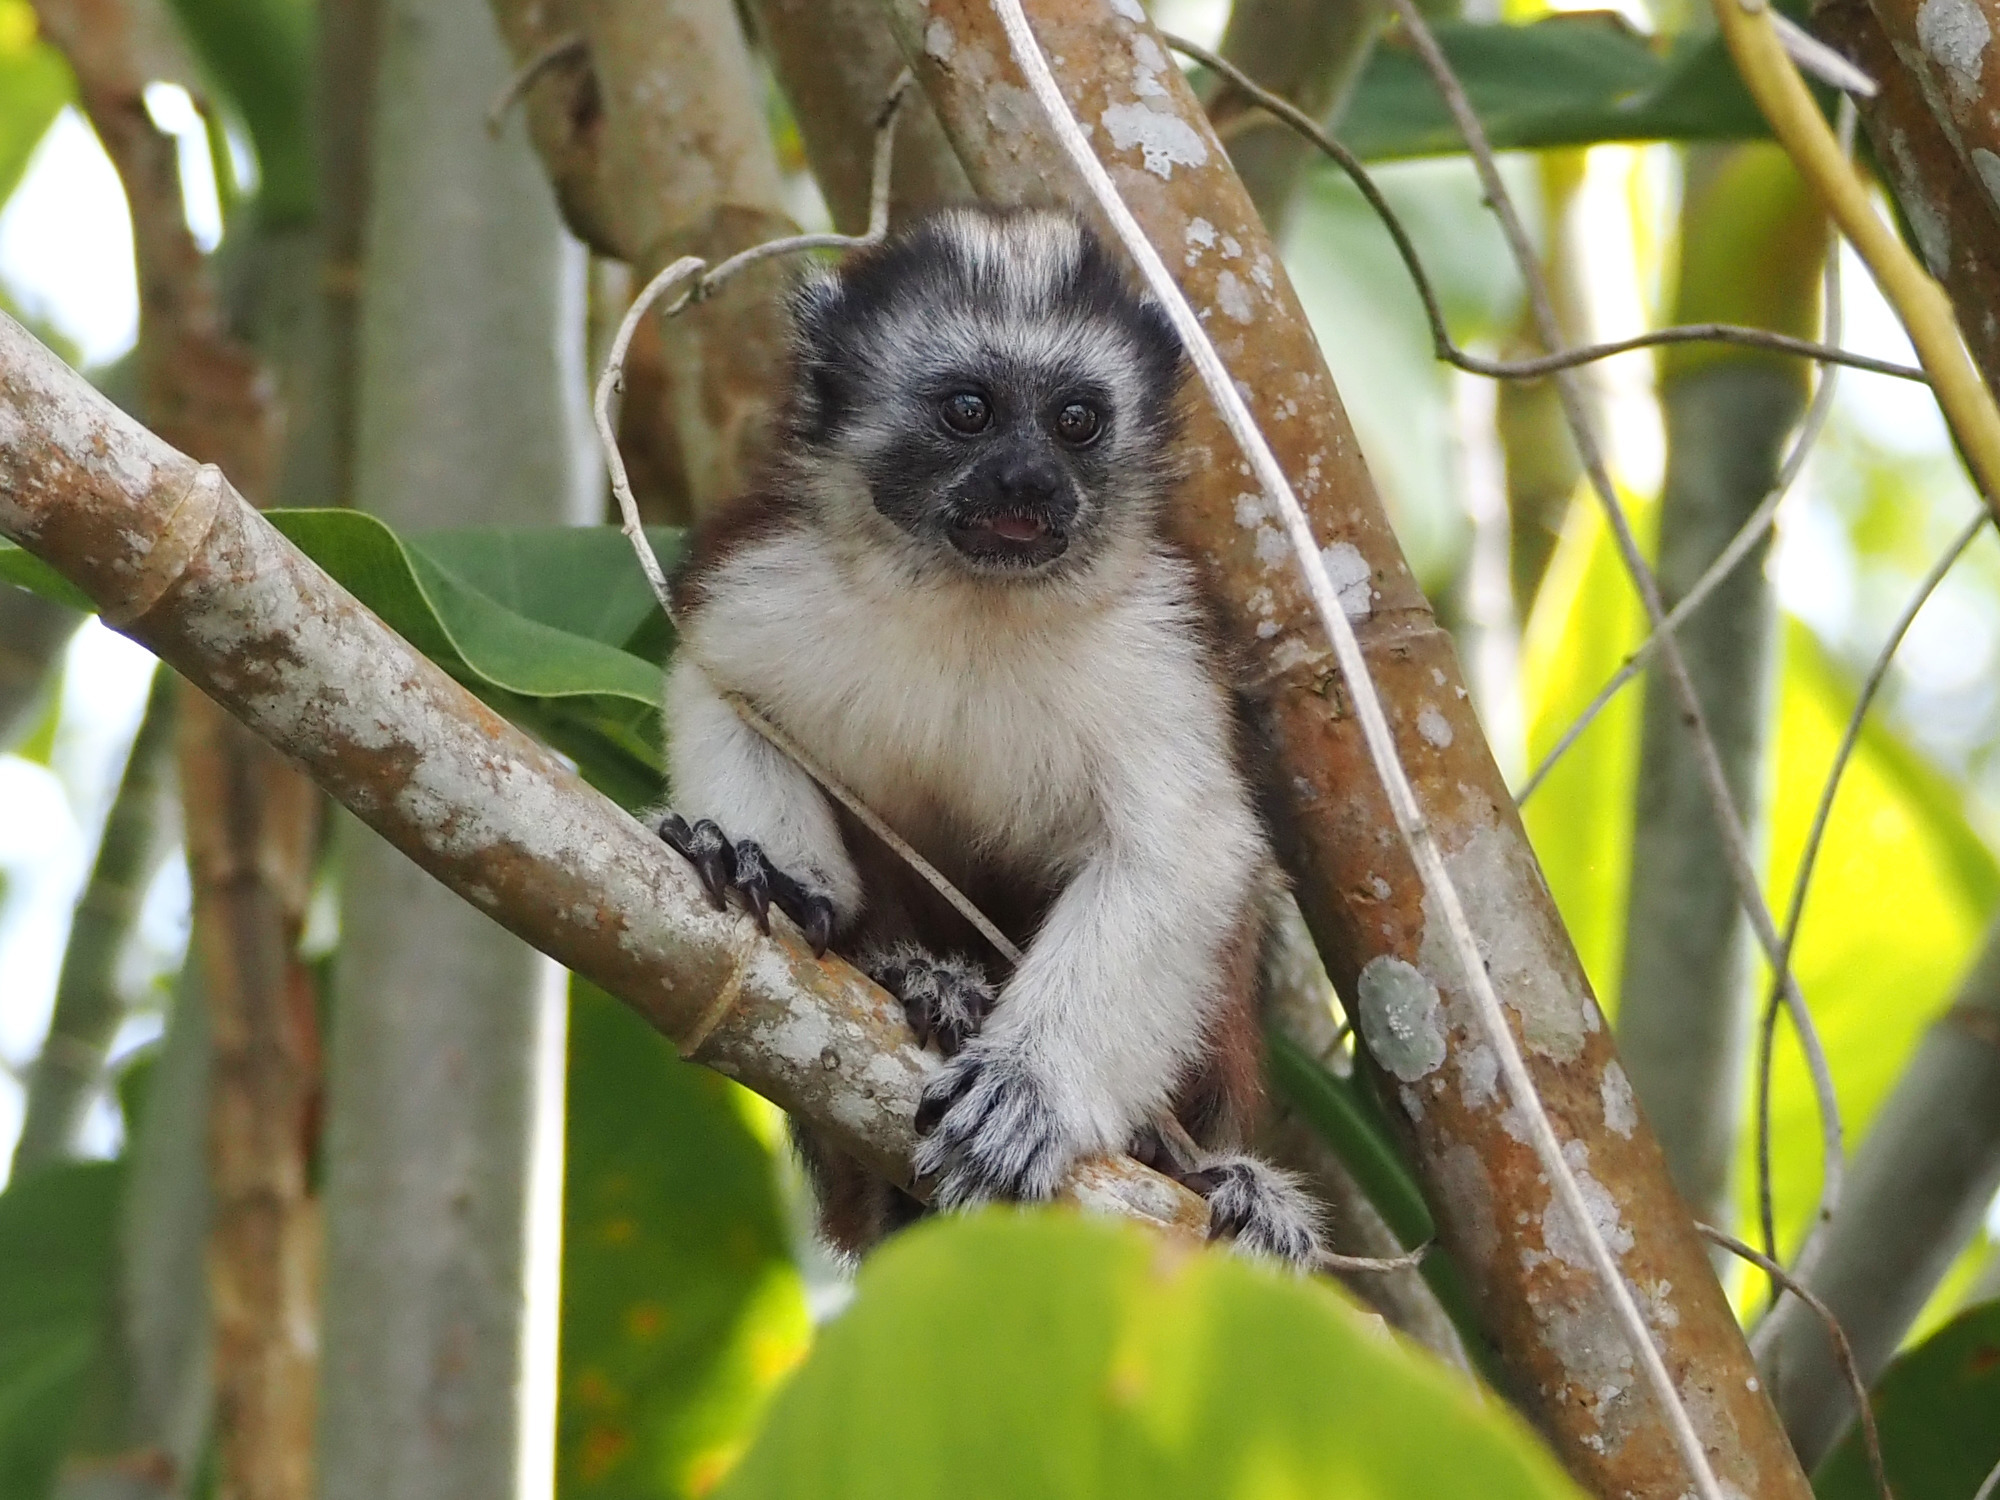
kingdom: Animalia
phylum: Chordata
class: Mammalia
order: Primates
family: Callitrichidae
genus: Saguinus
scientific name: Saguinus geoffroyi
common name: Geoffroy s tamarin
